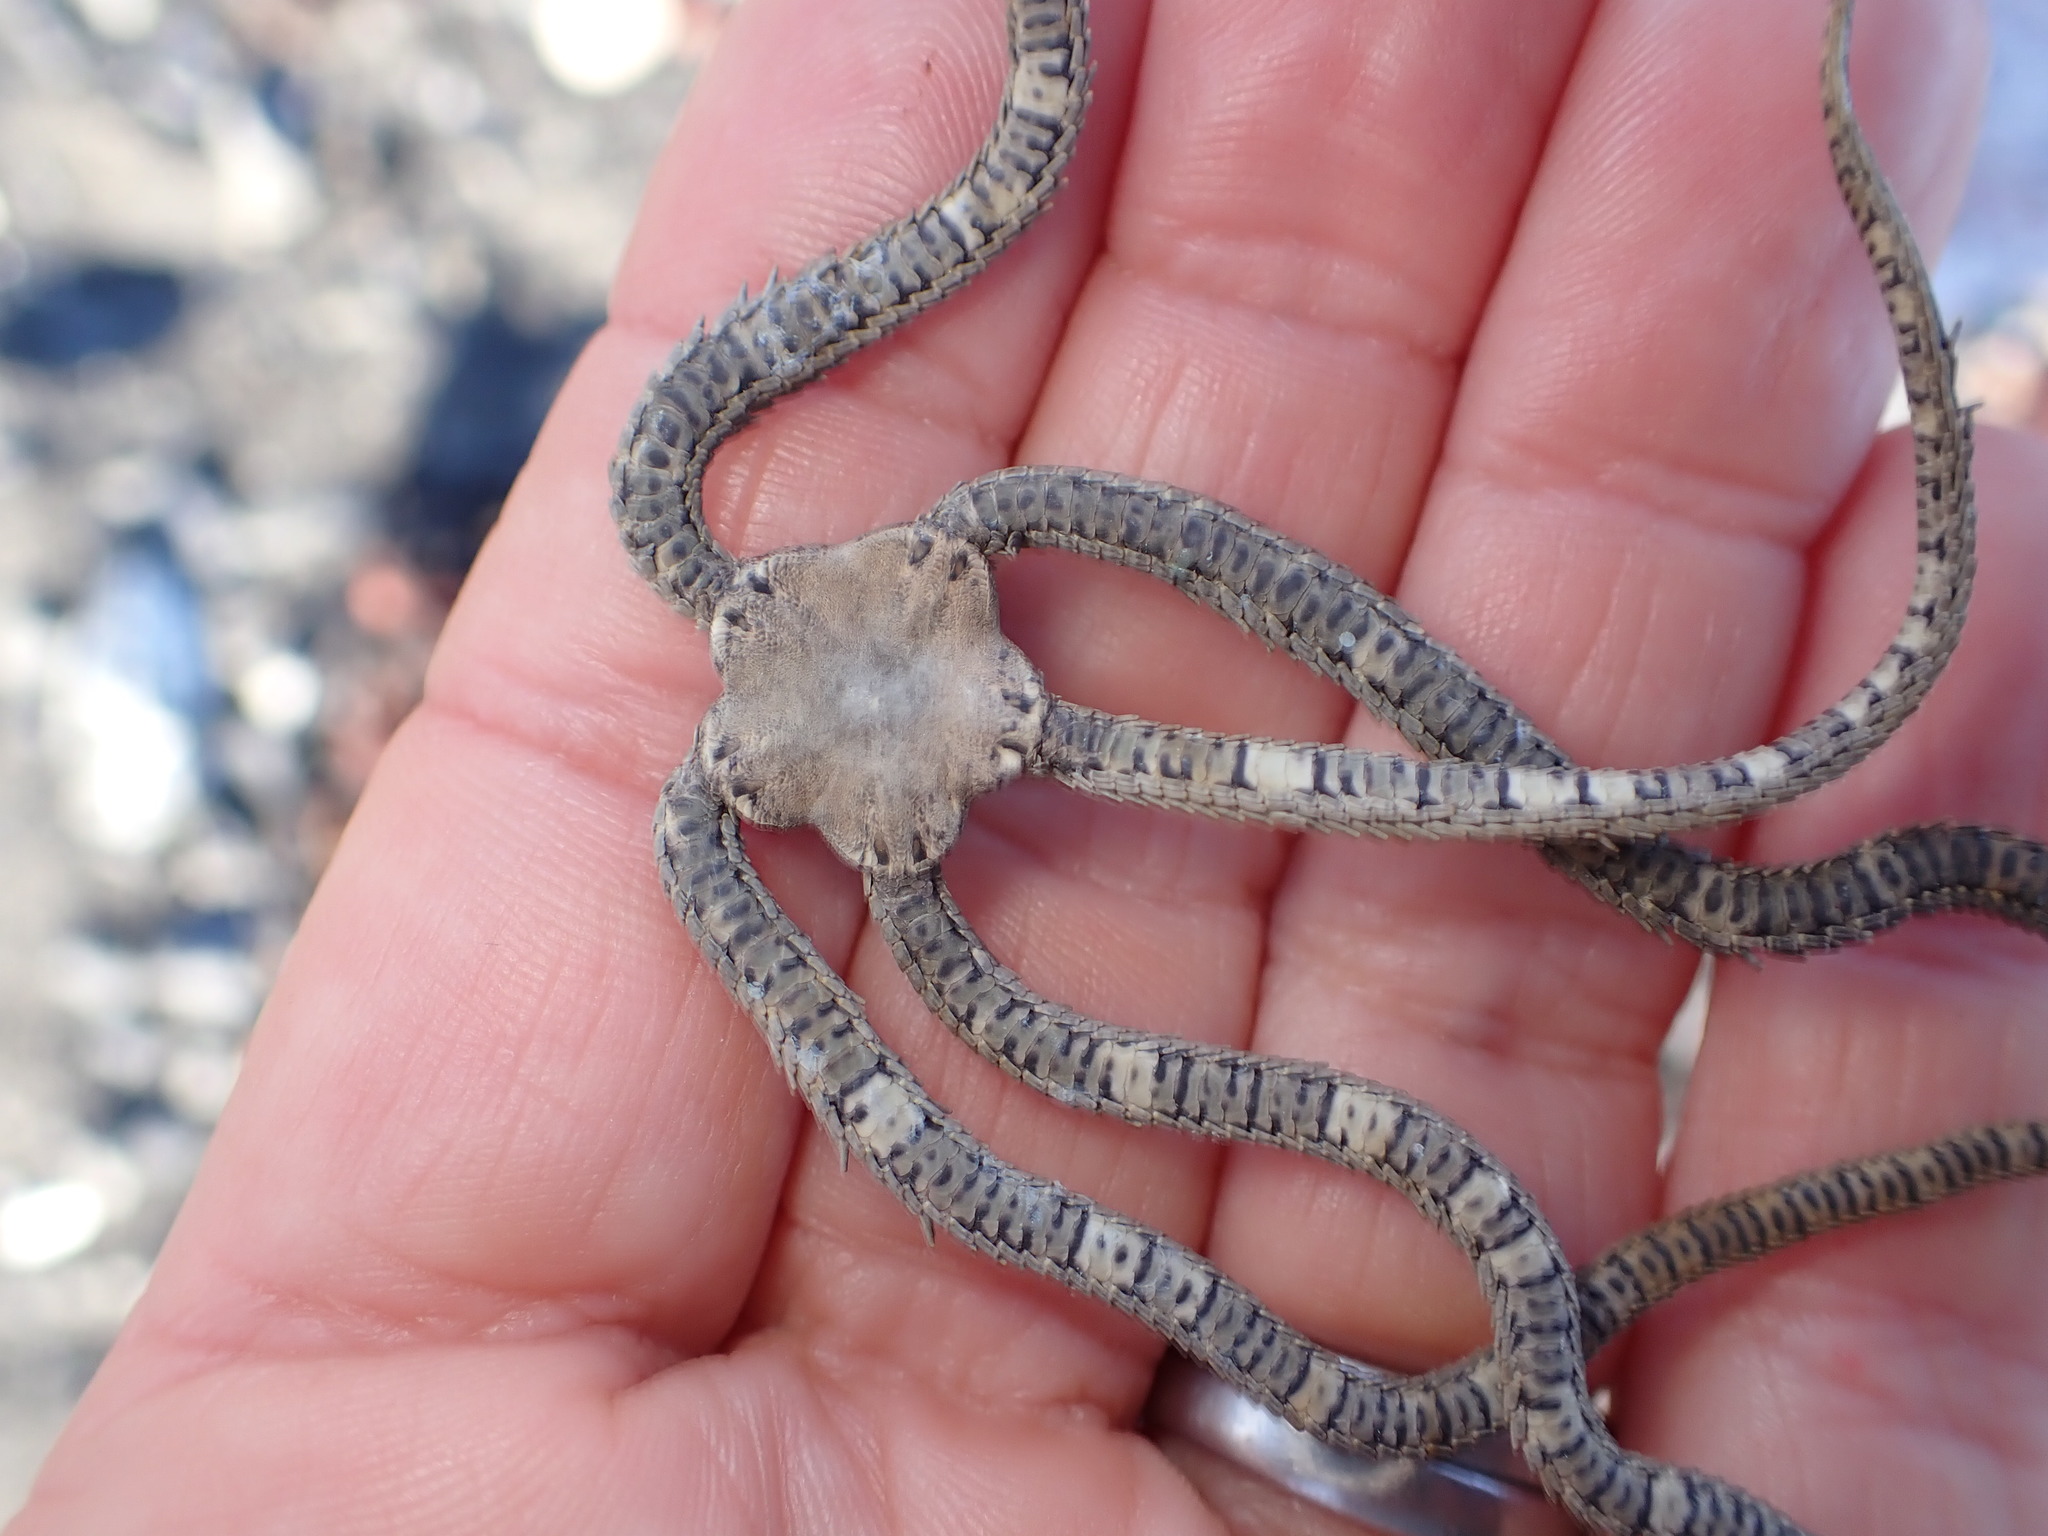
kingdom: Animalia
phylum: Echinodermata
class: Ophiuroidea
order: Amphilepidida
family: Ophionereididae
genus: Ophionereis
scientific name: Ophionereis fasciata
